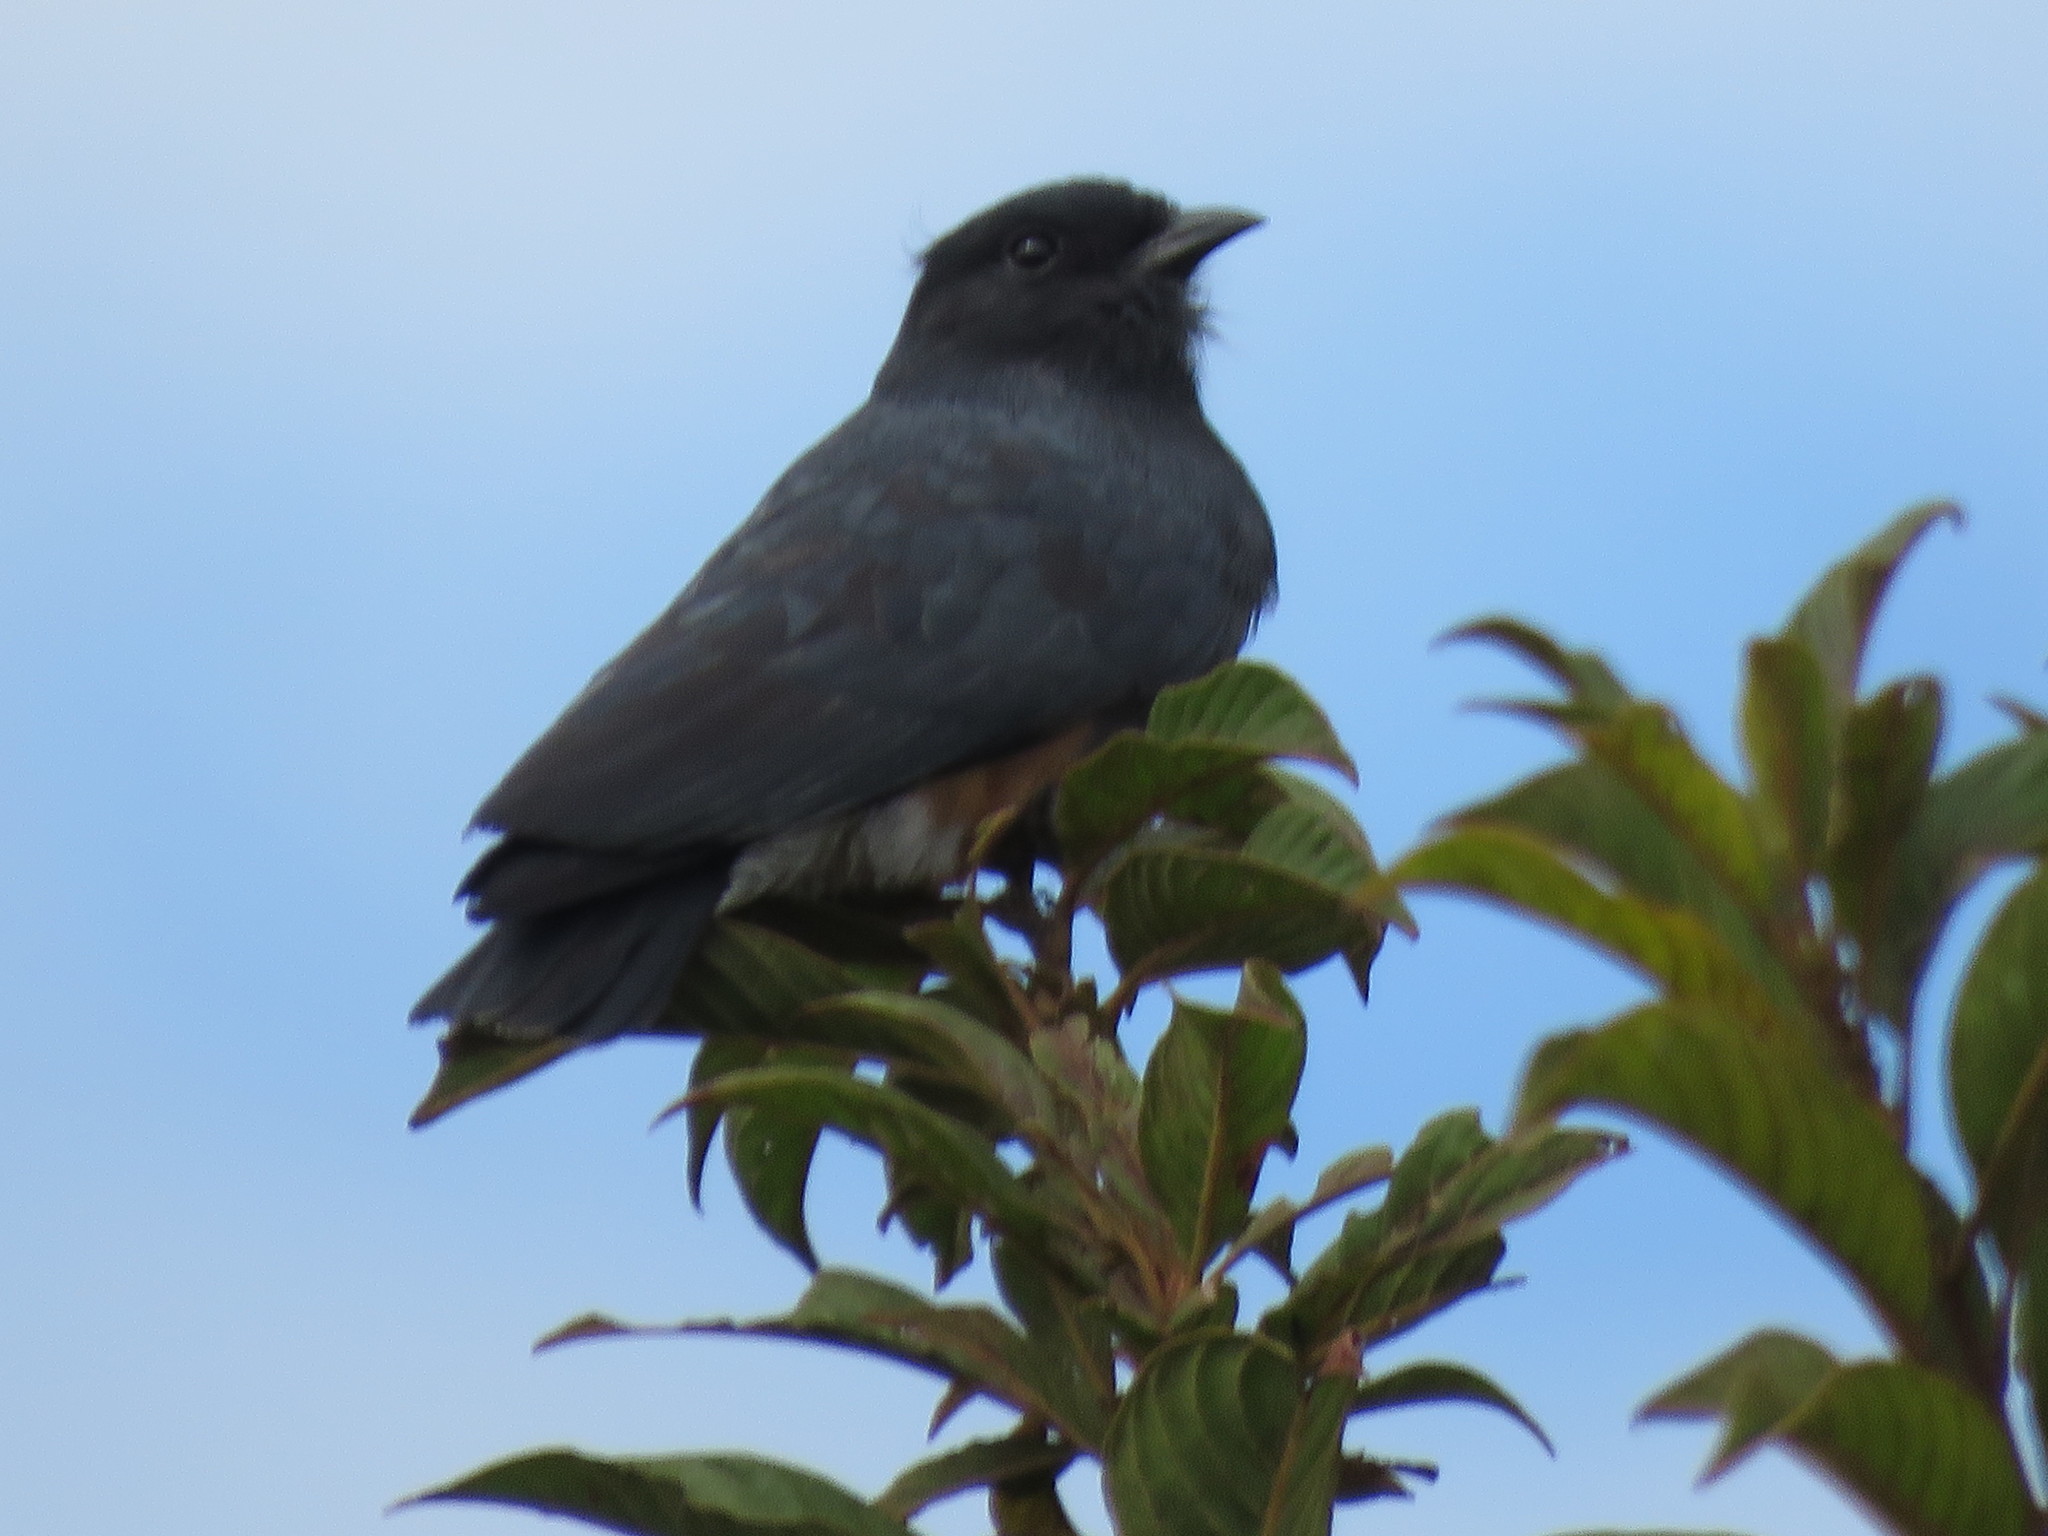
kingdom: Animalia
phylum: Chordata
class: Aves
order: Piciformes
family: Bucconidae
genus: Chelidoptera
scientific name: Chelidoptera tenebrosa
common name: Swallow-winged puffbird
